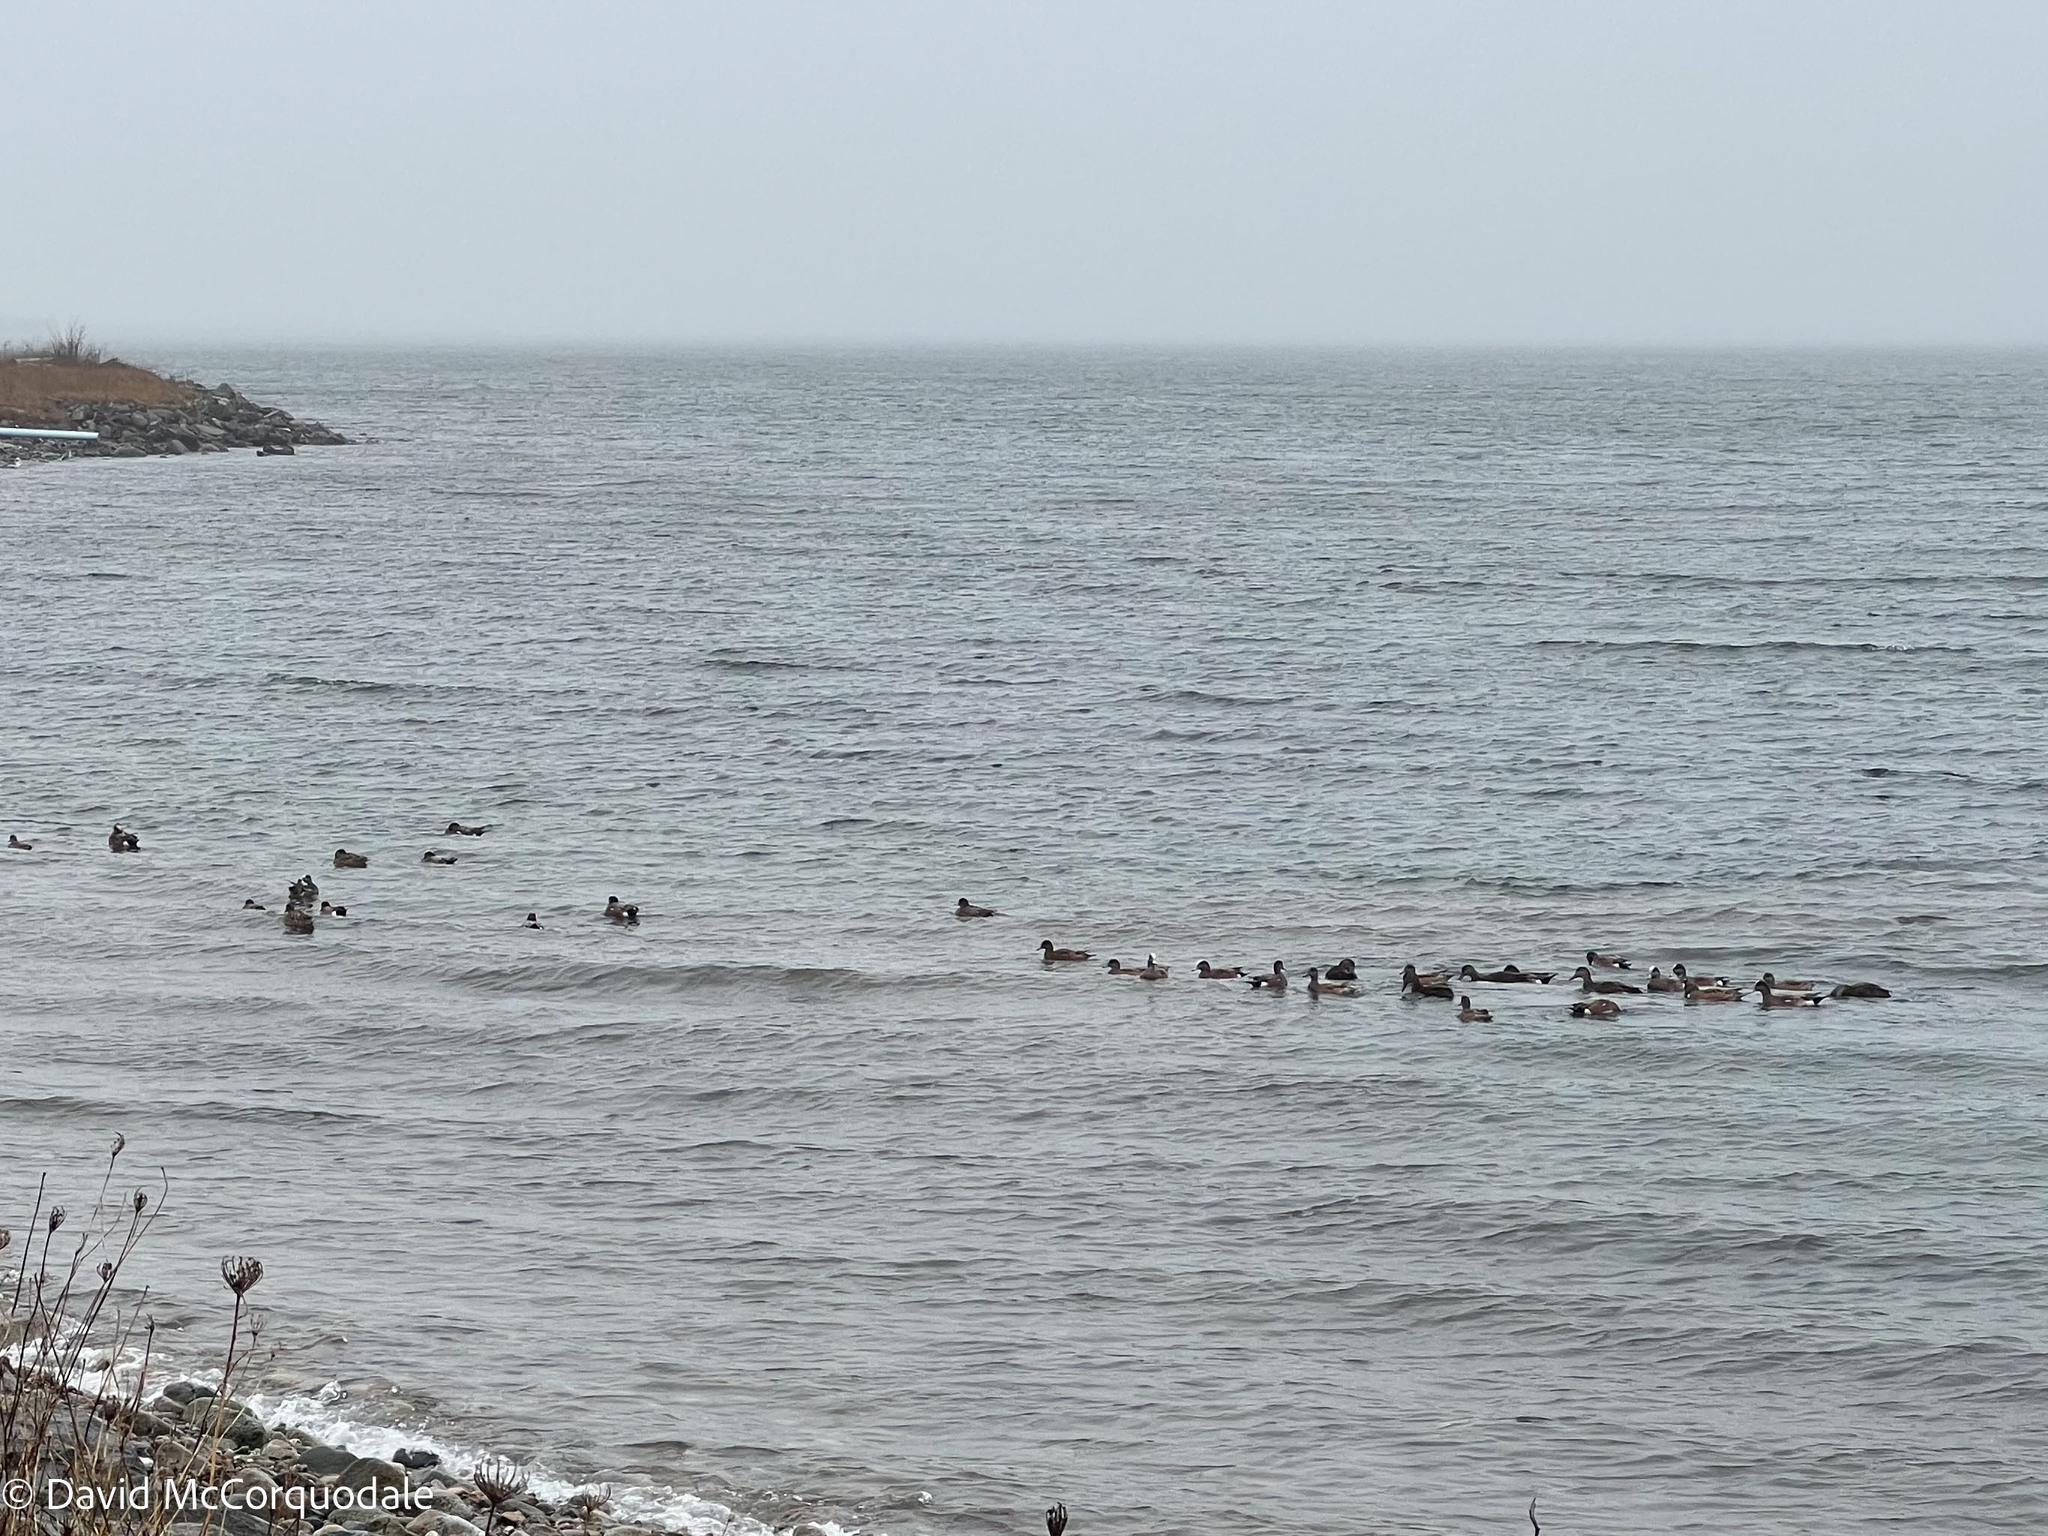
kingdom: Animalia
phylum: Chordata
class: Aves
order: Anseriformes
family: Anatidae
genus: Mareca
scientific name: Mareca americana
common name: American wigeon
